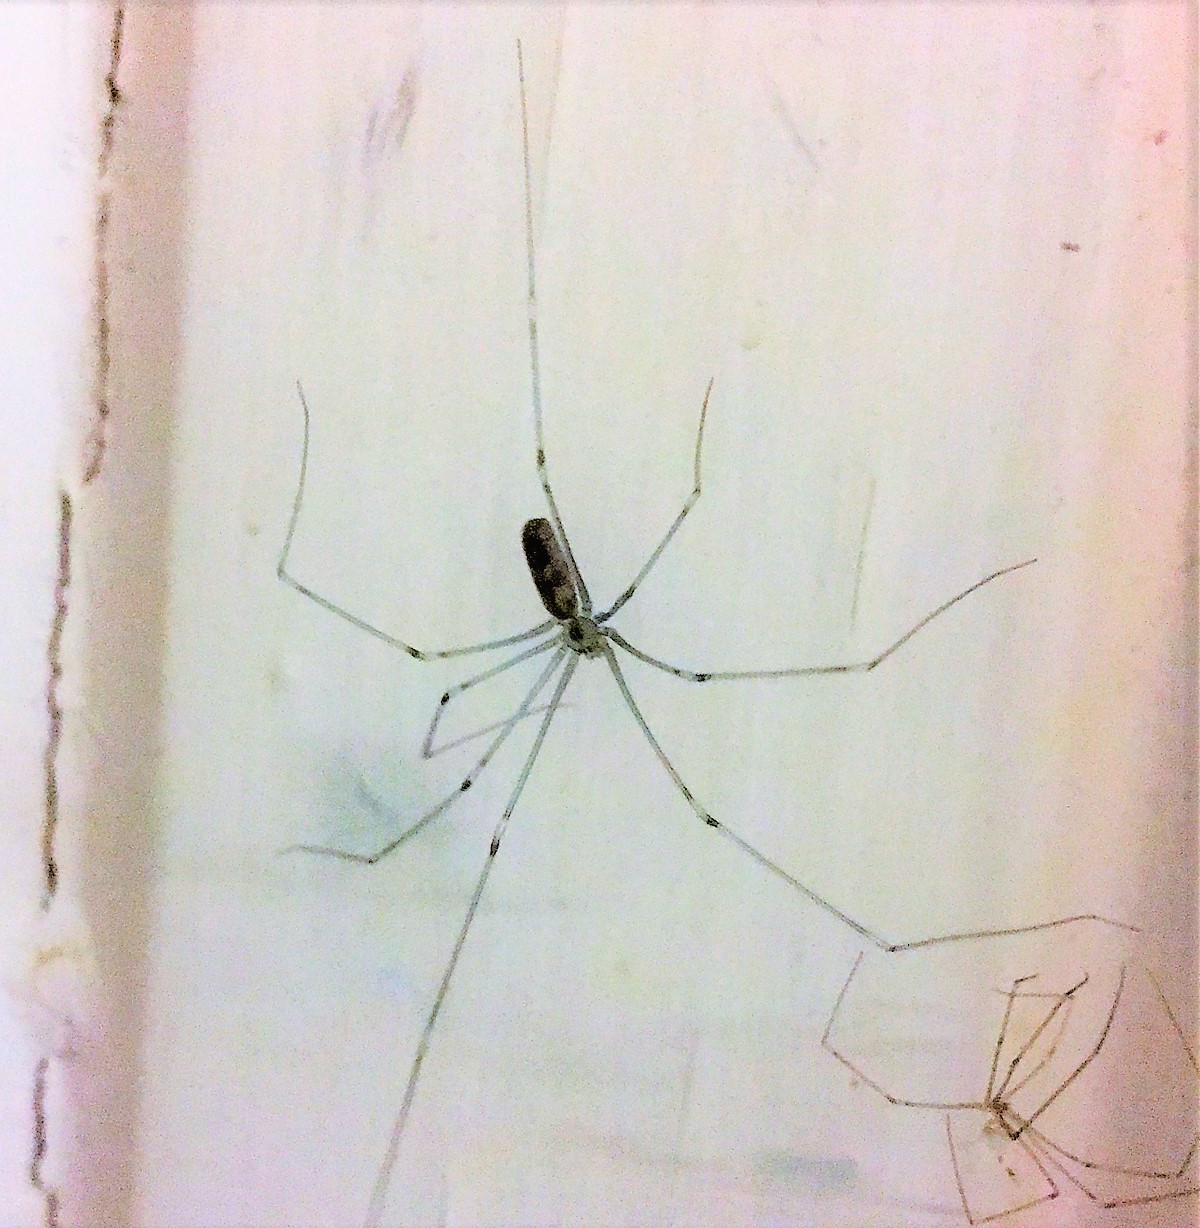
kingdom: Animalia
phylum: Arthropoda
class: Arachnida
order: Araneae
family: Pholcidae
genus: Pholcus
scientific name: Pholcus phalangioides
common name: Longbodied cellar spider
